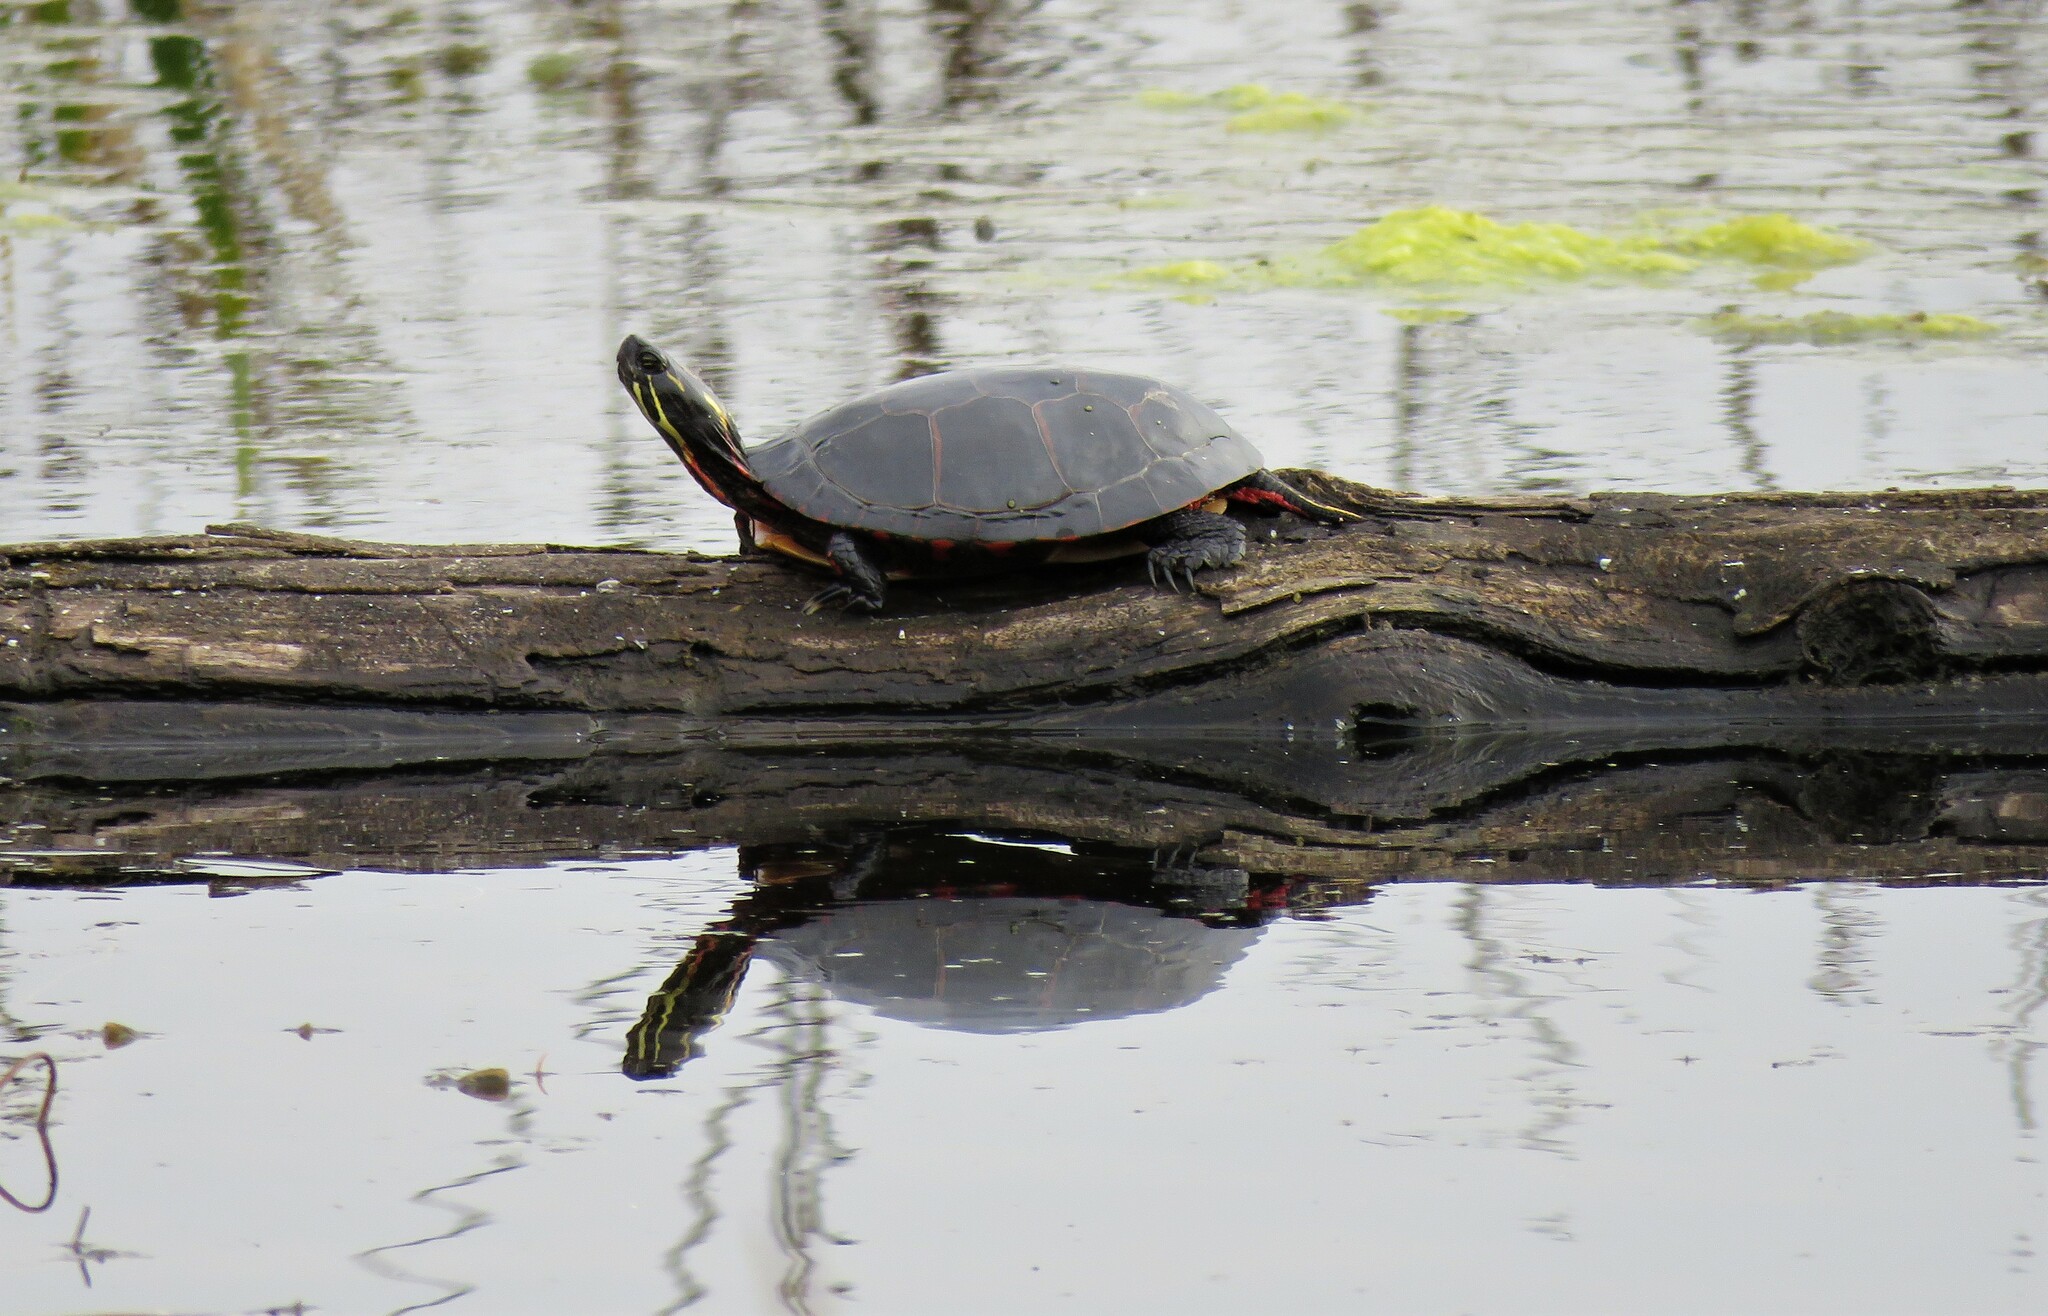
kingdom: Animalia
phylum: Chordata
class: Testudines
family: Emydidae
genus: Chrysemys
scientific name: Chrysemys picta
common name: Painted turtle
